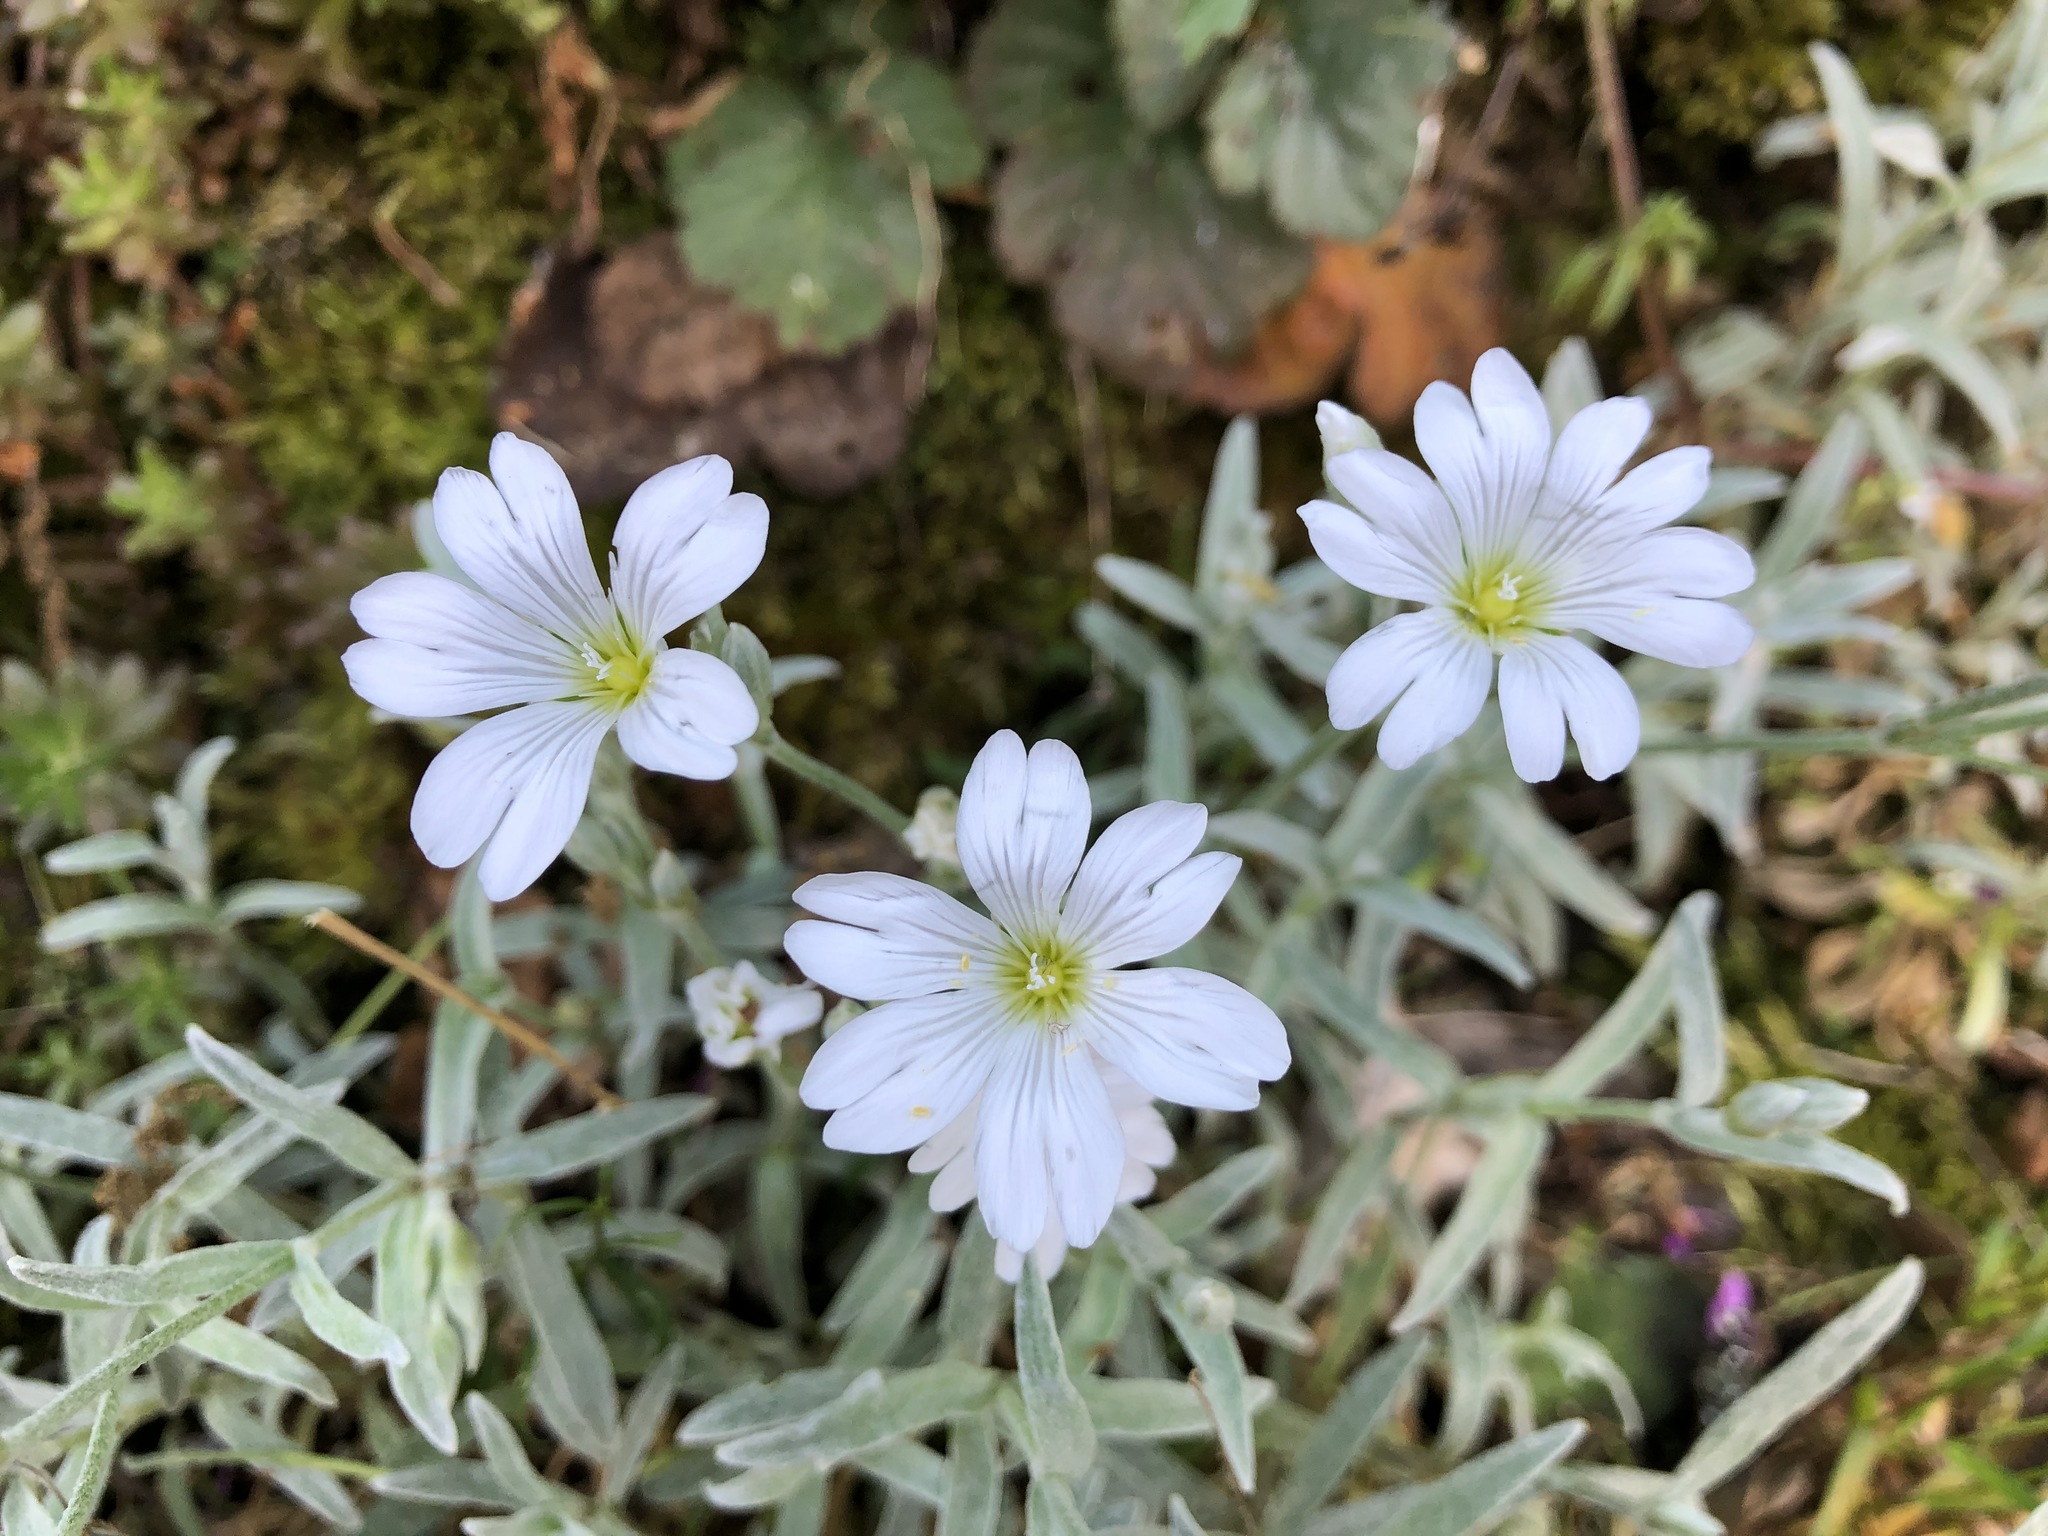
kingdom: Plantae
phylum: Tracheophyta
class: Magnoliopsida
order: Caryophyllales
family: Caryophyllaceae
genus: Cerastium
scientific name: Cerastium tomentosum
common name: Snow-in-summer
